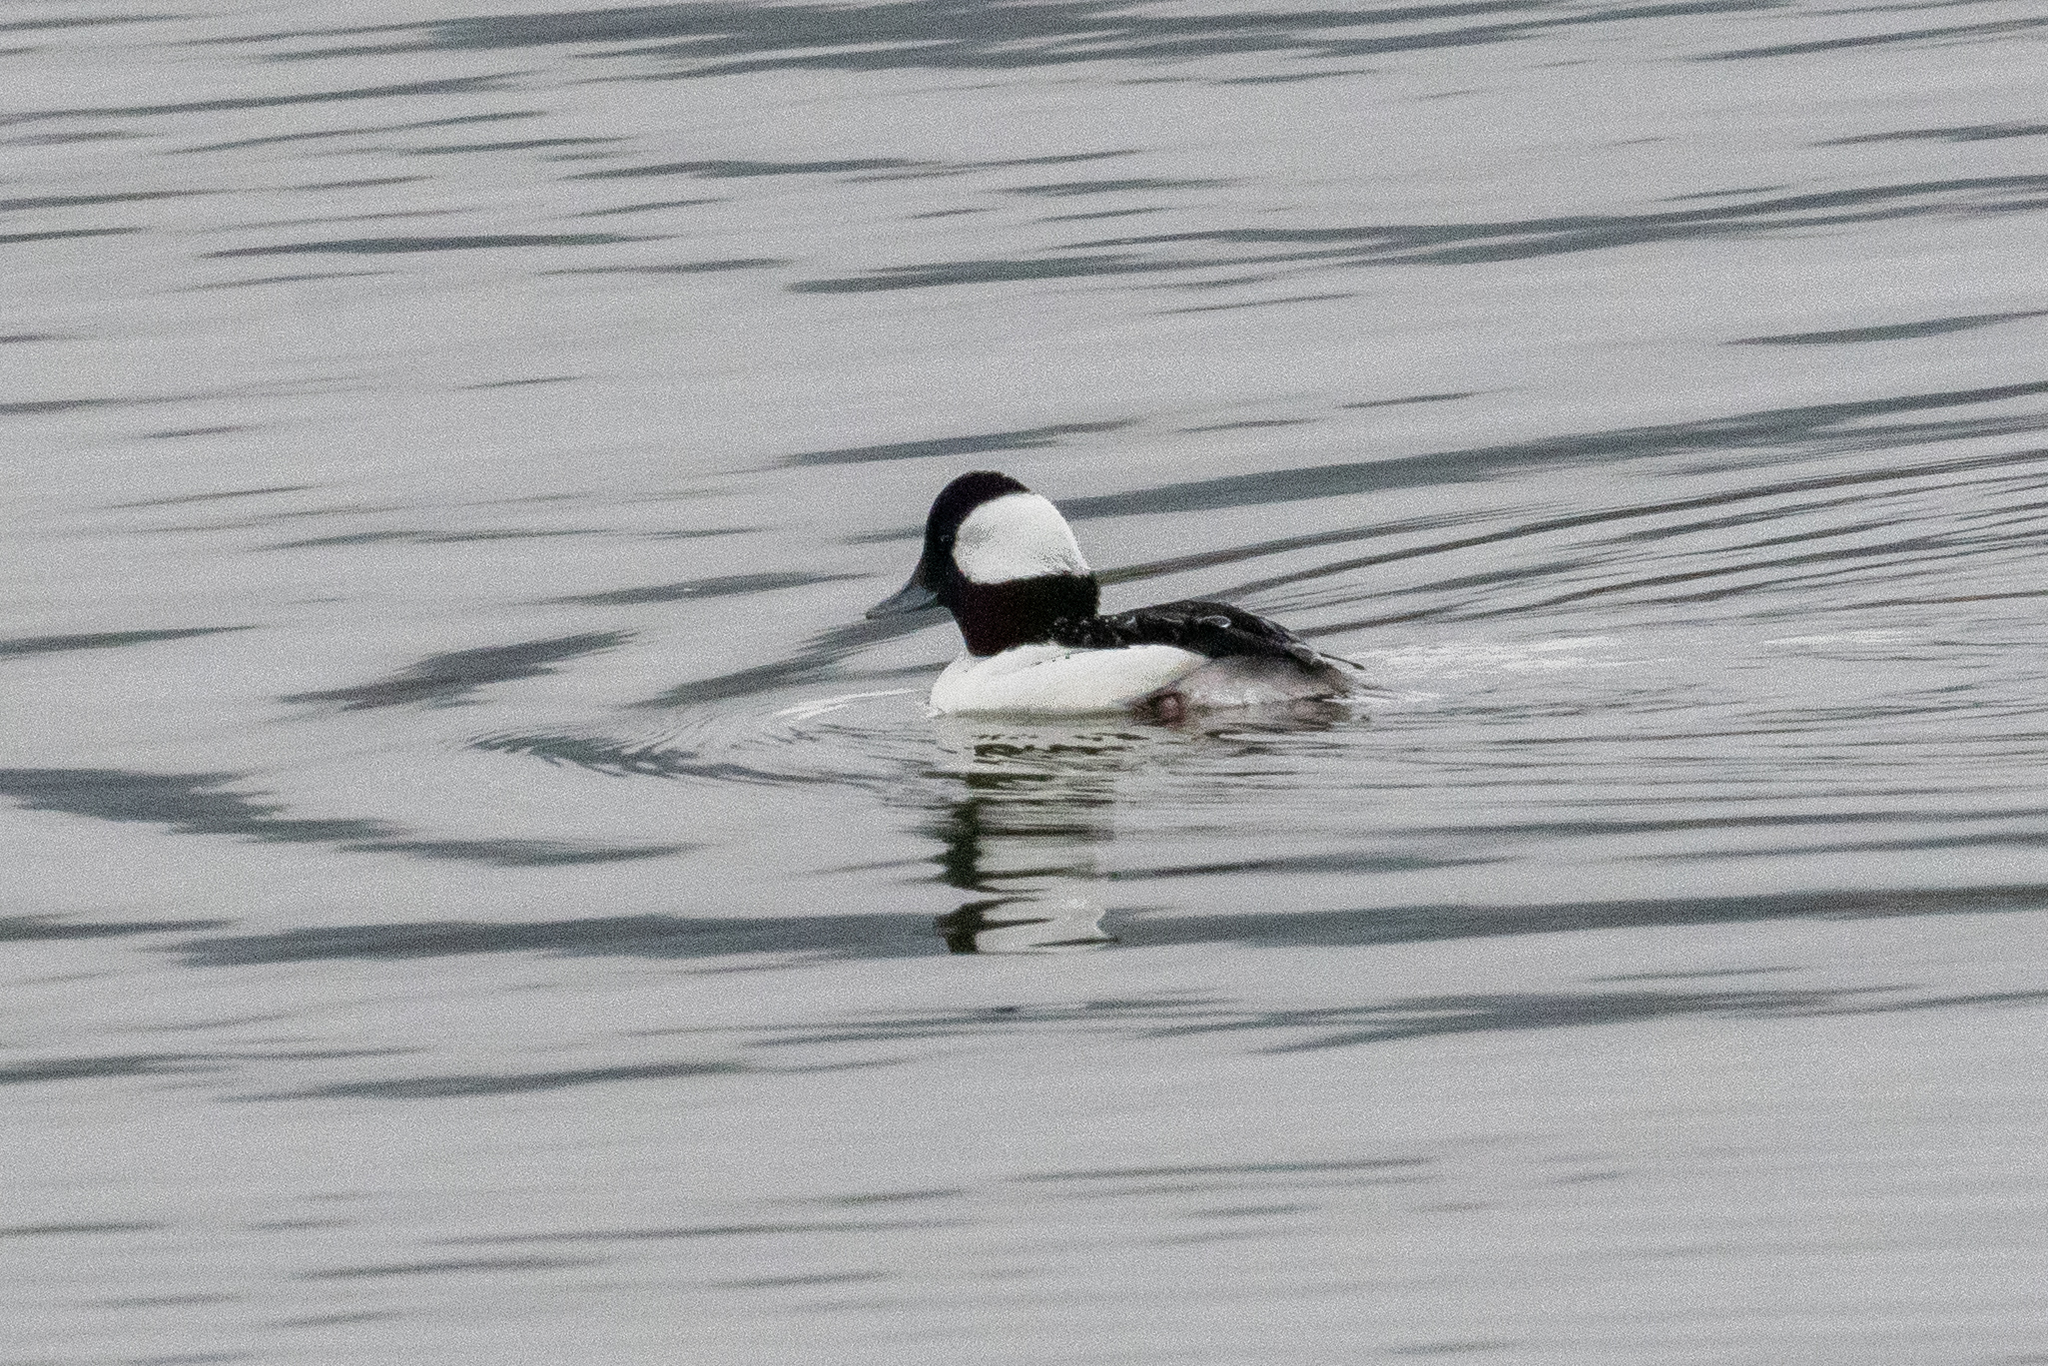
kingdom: Animalia
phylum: Chordata
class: Aves
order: Anseriformes
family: Anatidae
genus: Bucephala
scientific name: Bucephala albeola
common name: Bufflehead
